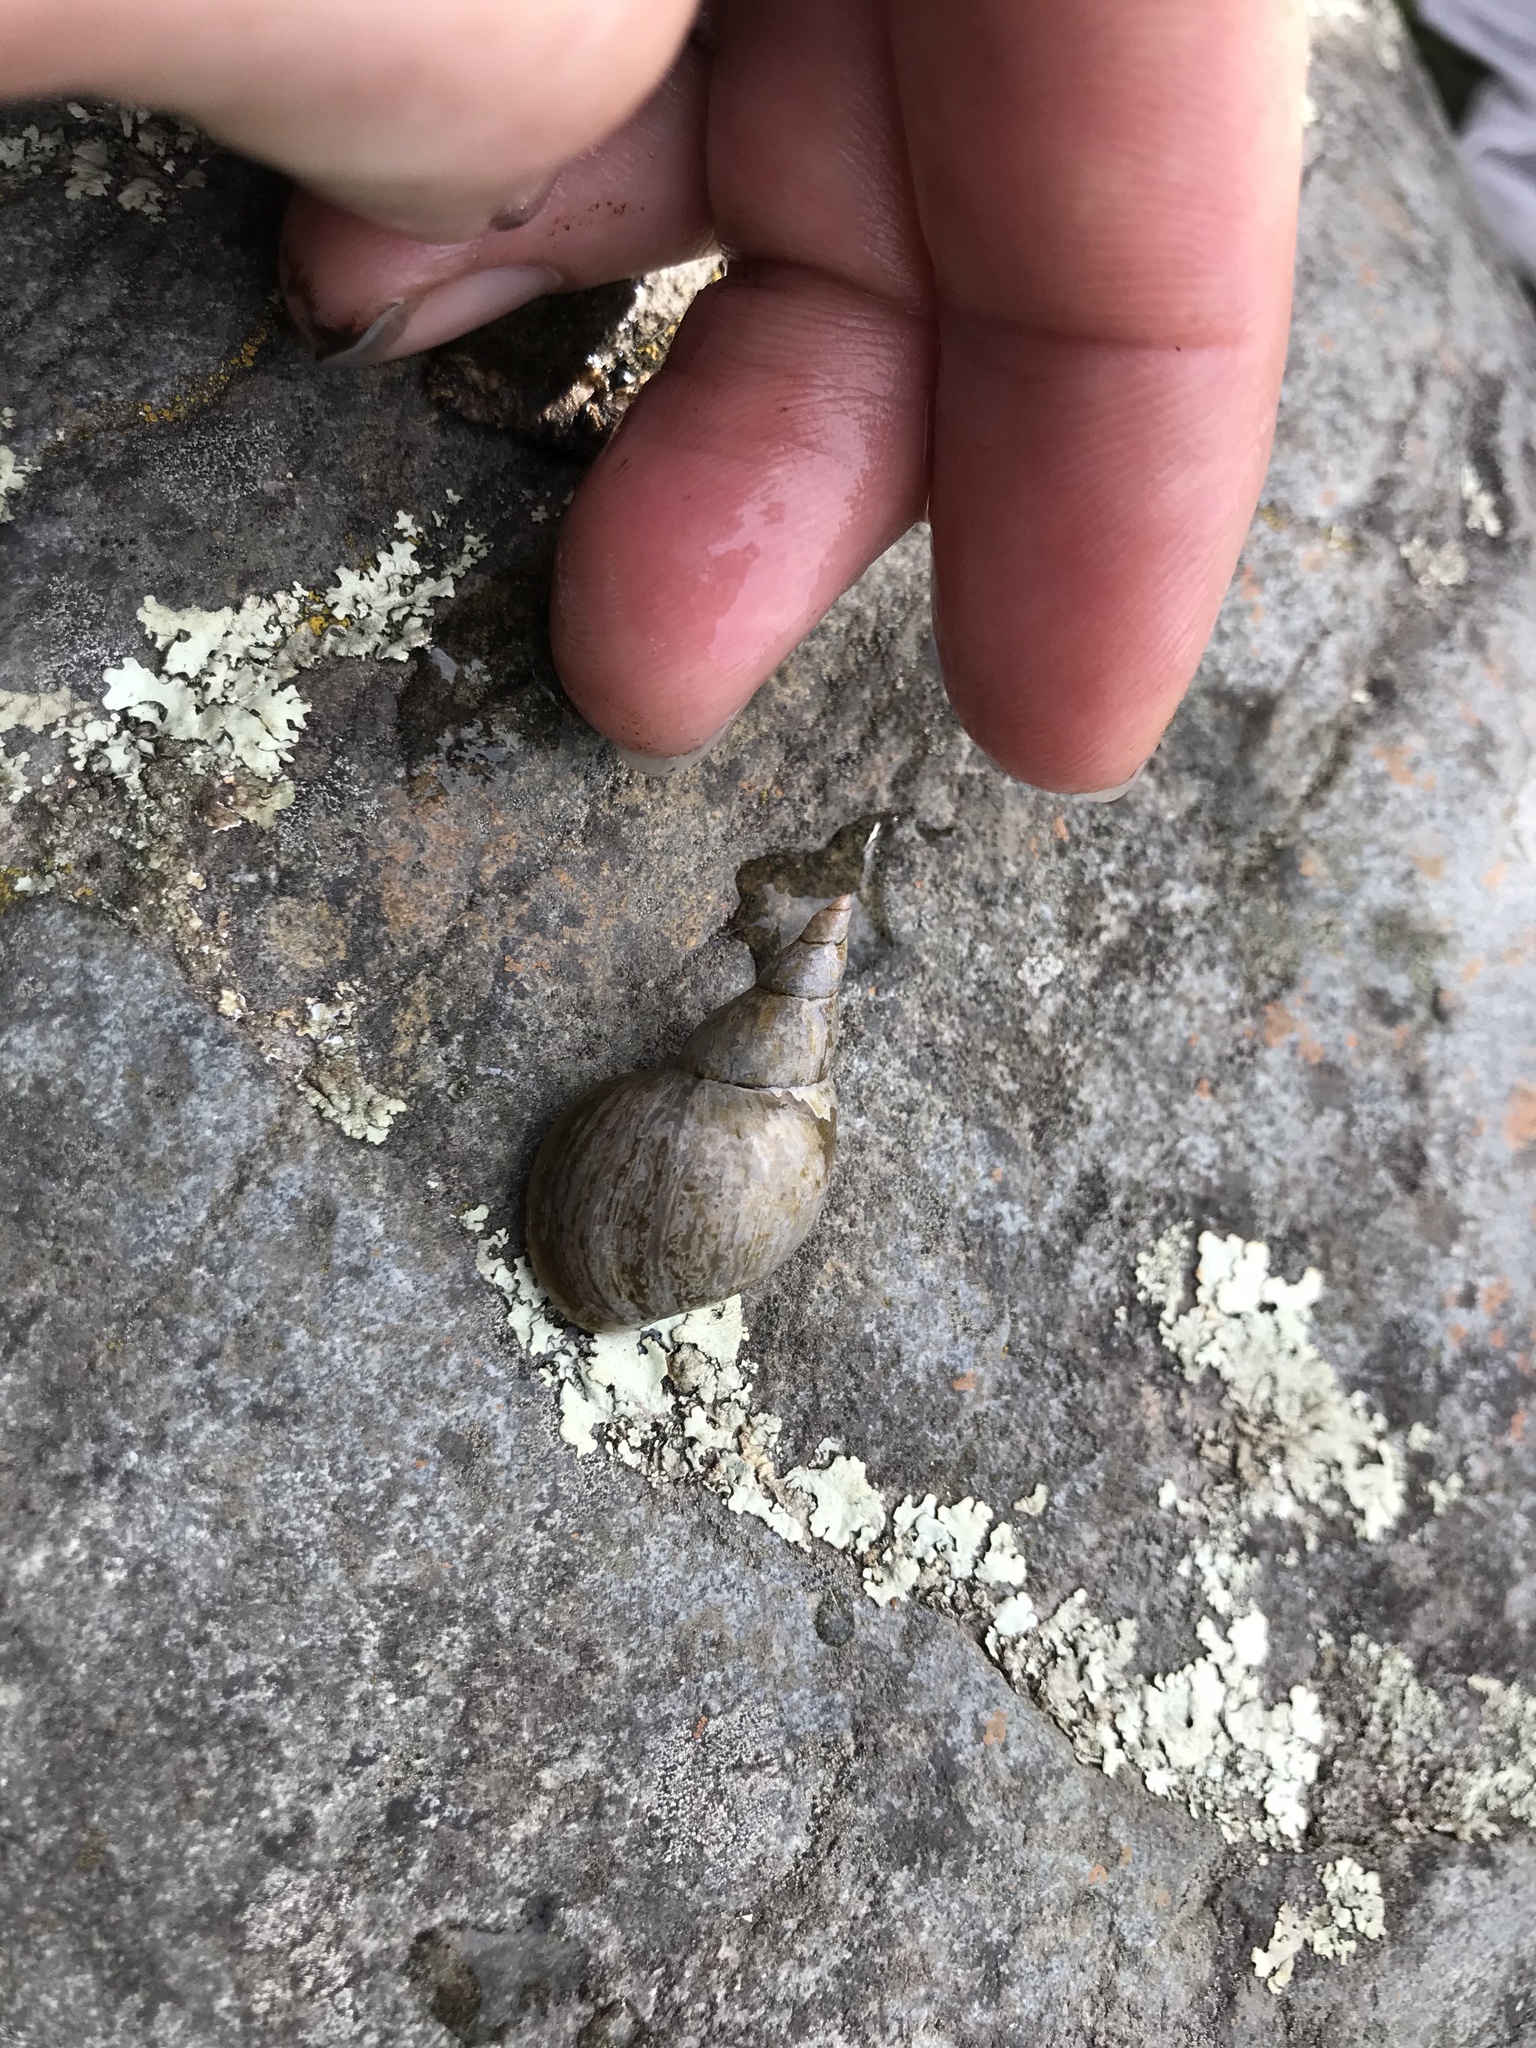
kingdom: Animalia
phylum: Mollusca
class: Gastropoda
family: Lymnaeidae
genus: Lymnaea
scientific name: Lymnaea stagnalis
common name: Great pond snail
